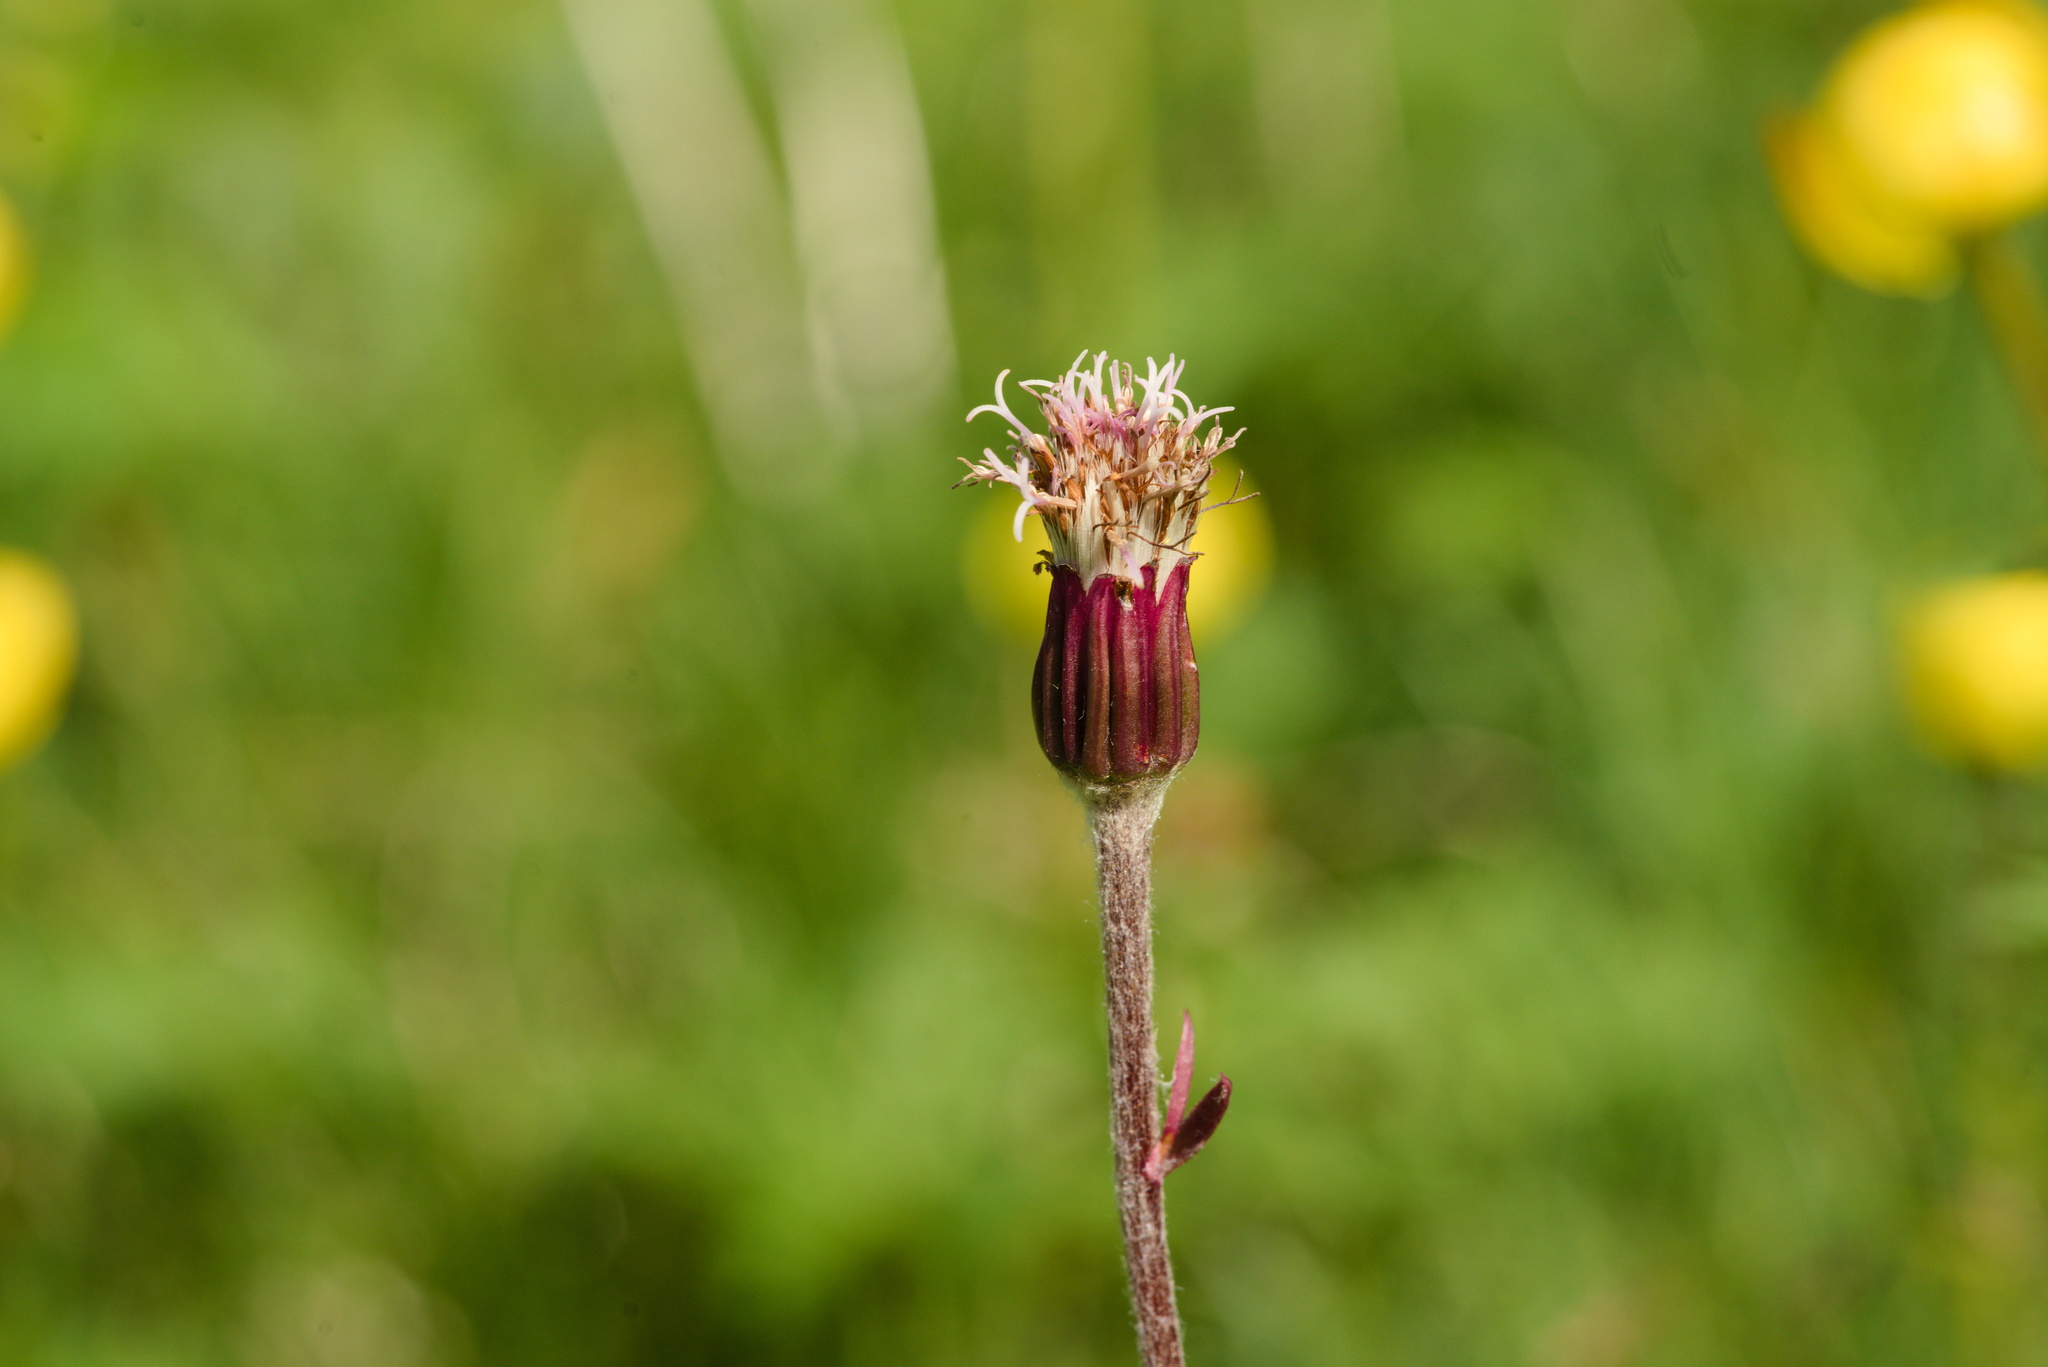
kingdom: Plantae
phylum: Tracheophyta
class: Magnoliopsida
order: Asterales
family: Asteraceae
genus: Homogyne
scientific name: Homogyne alpina
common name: Purple colt's-foot
